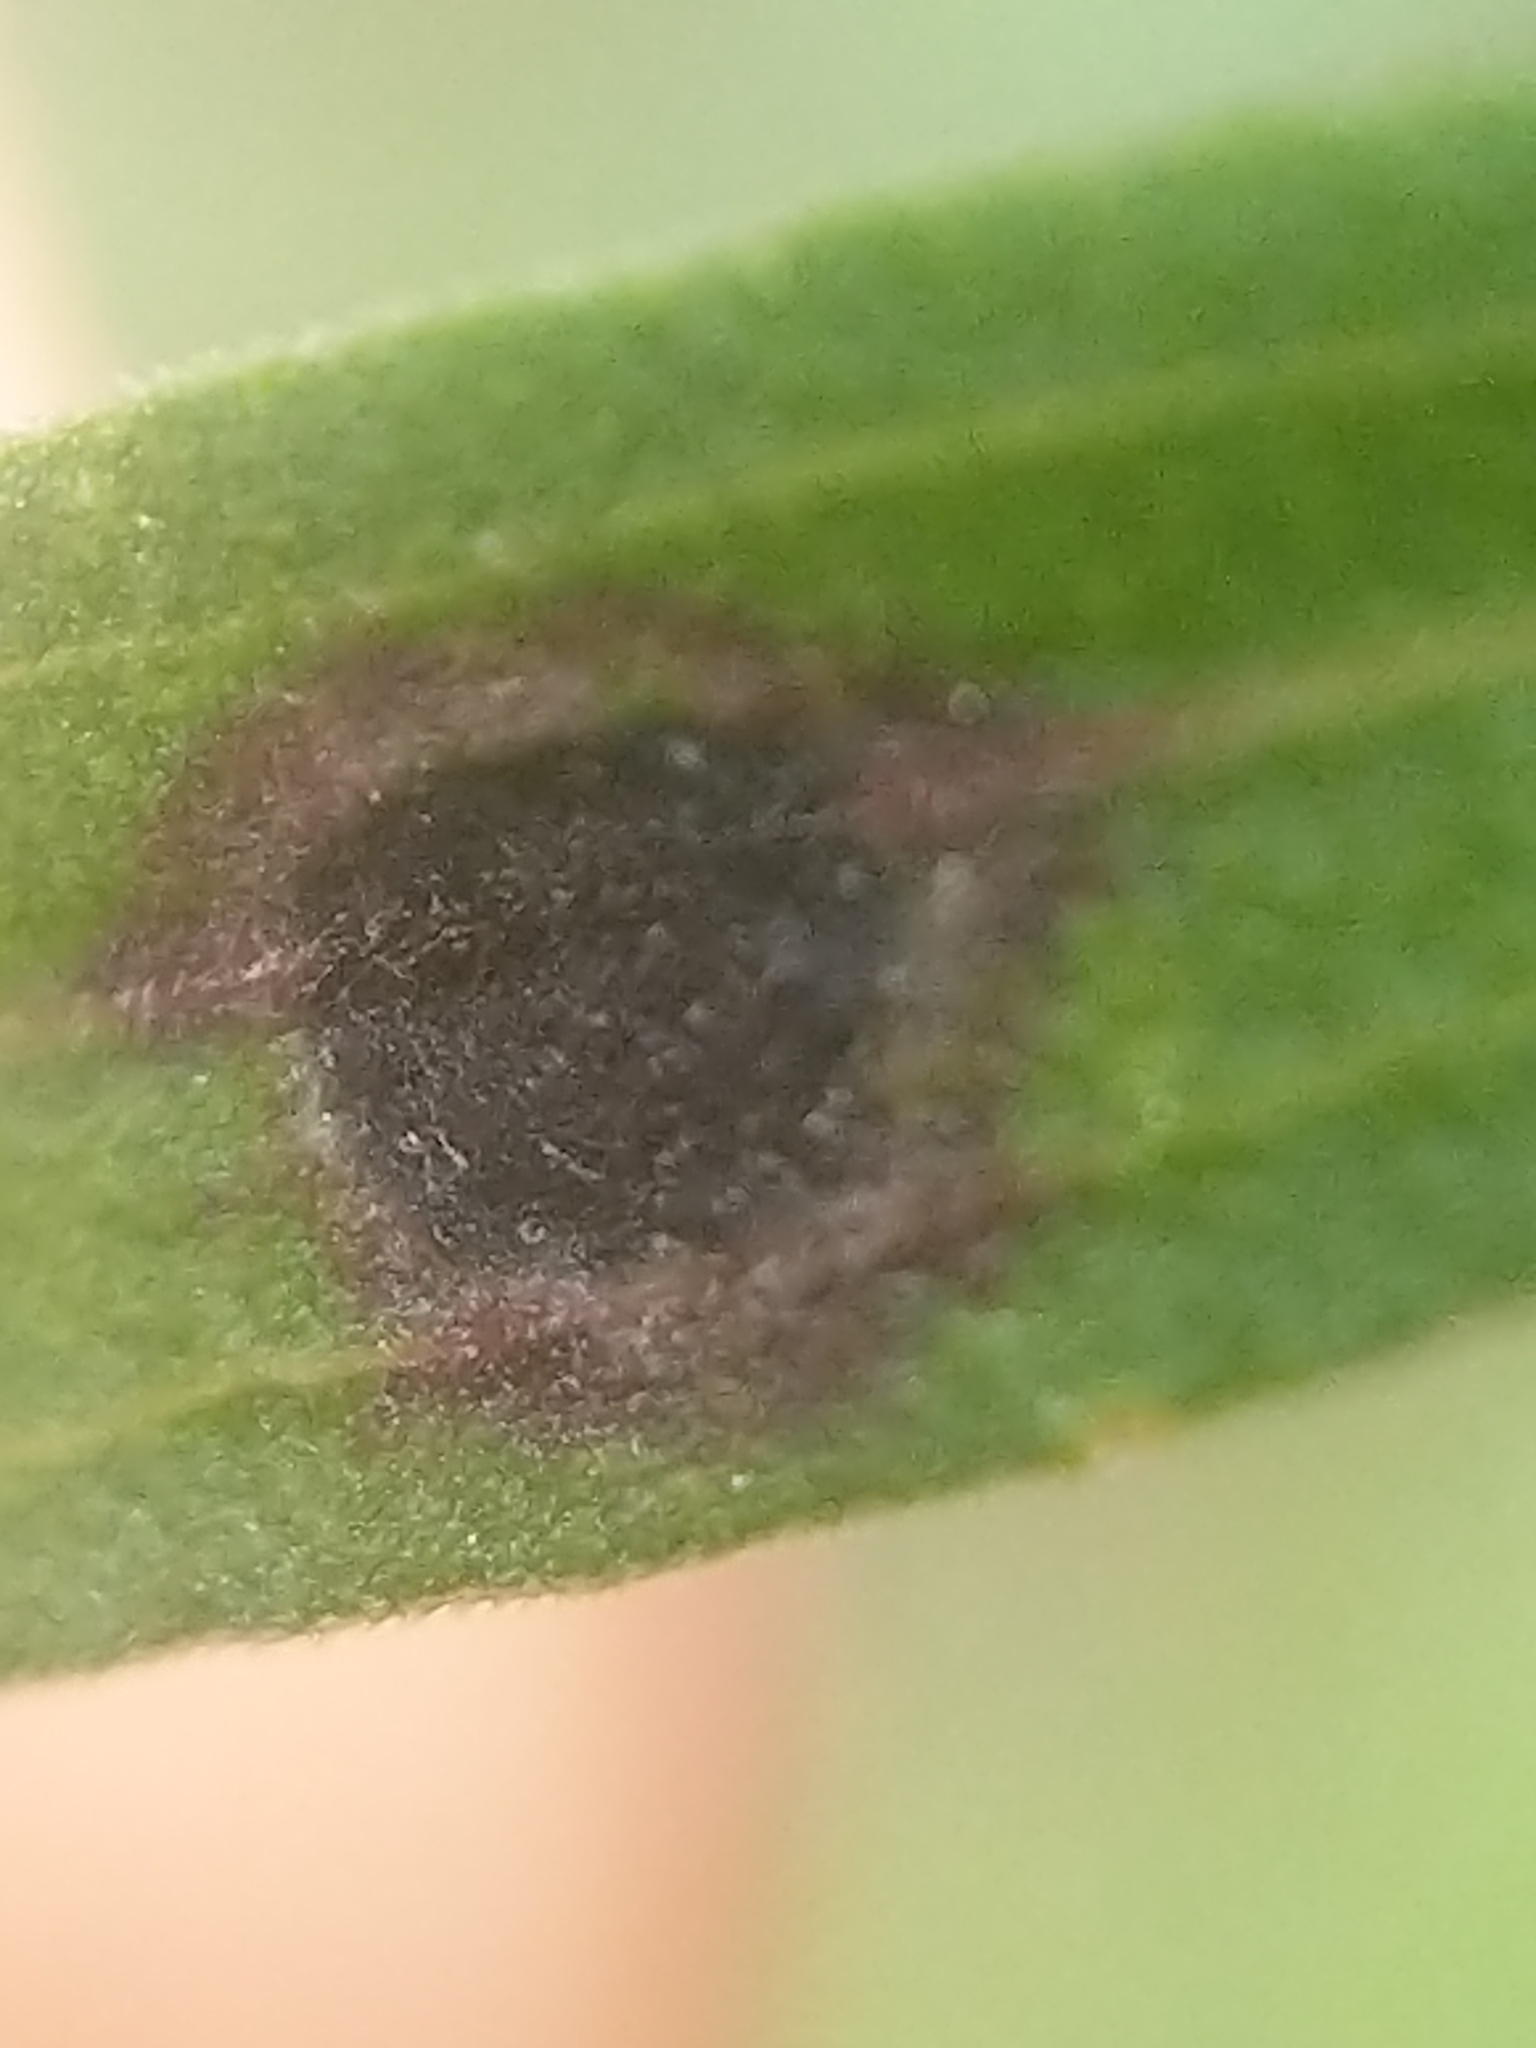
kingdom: Animalia
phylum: Arthropoda
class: Insecta
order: Diptera
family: Cecidomyiidae
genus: Asteromyia
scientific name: Asteromyia euthamiae
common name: Euthamia leaf gall midge
